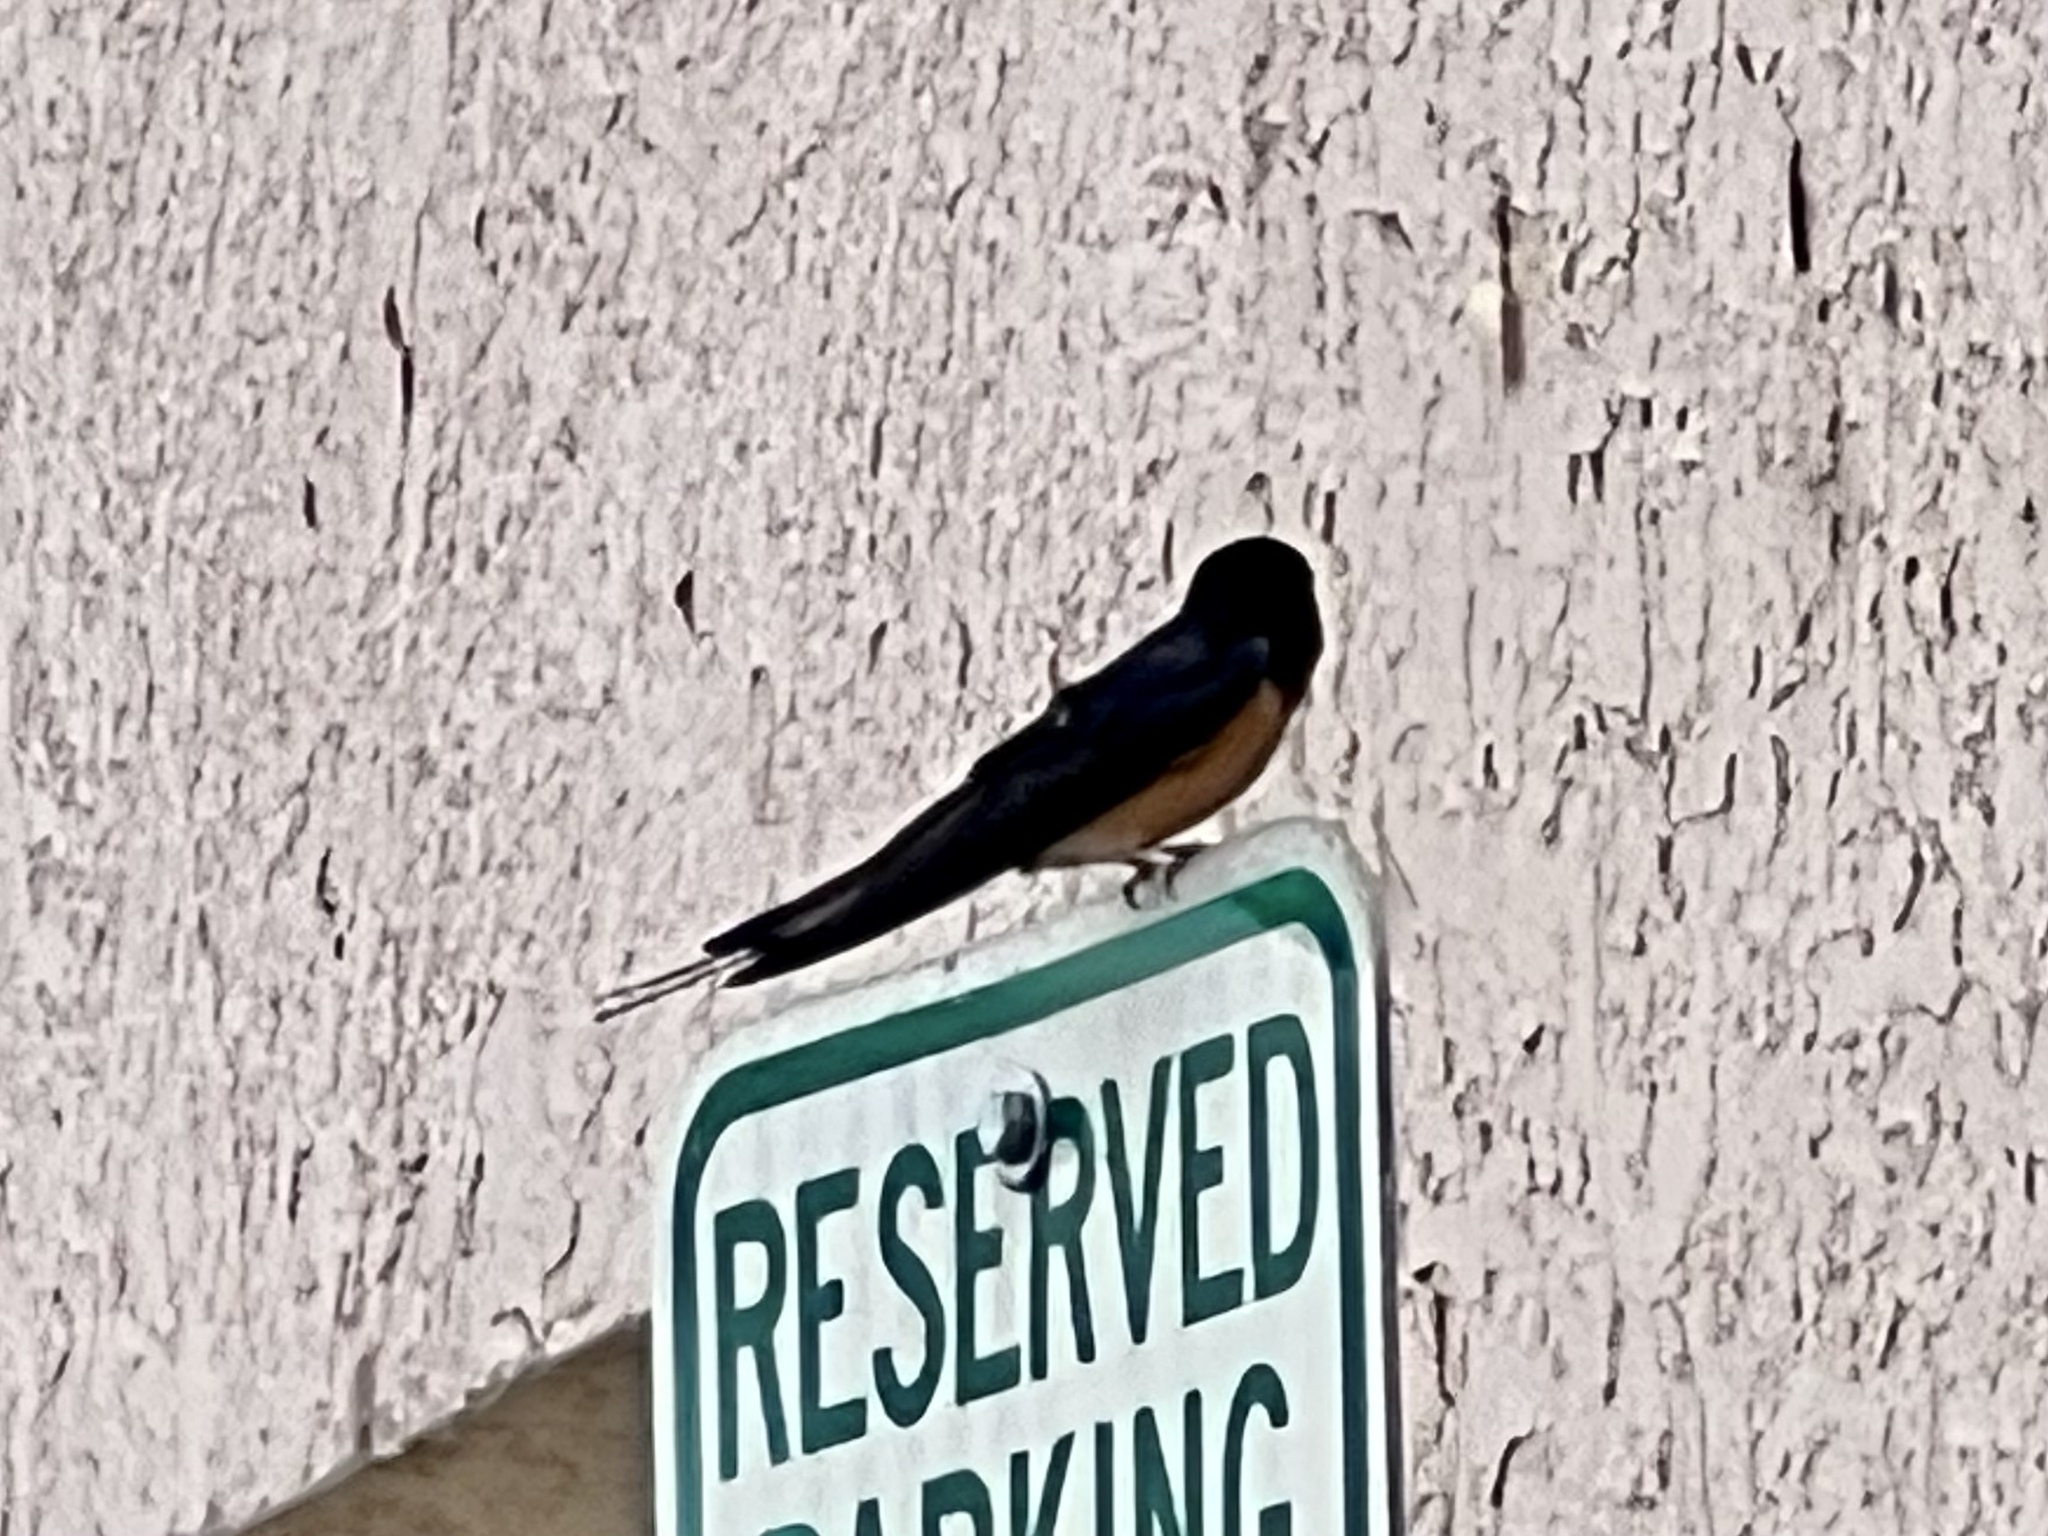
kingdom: Animalia
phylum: Chordata
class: Aves
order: Passeriformes
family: Hirundinidae
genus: Hirundo
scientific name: Hirundo rustica
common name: Barn swallow
